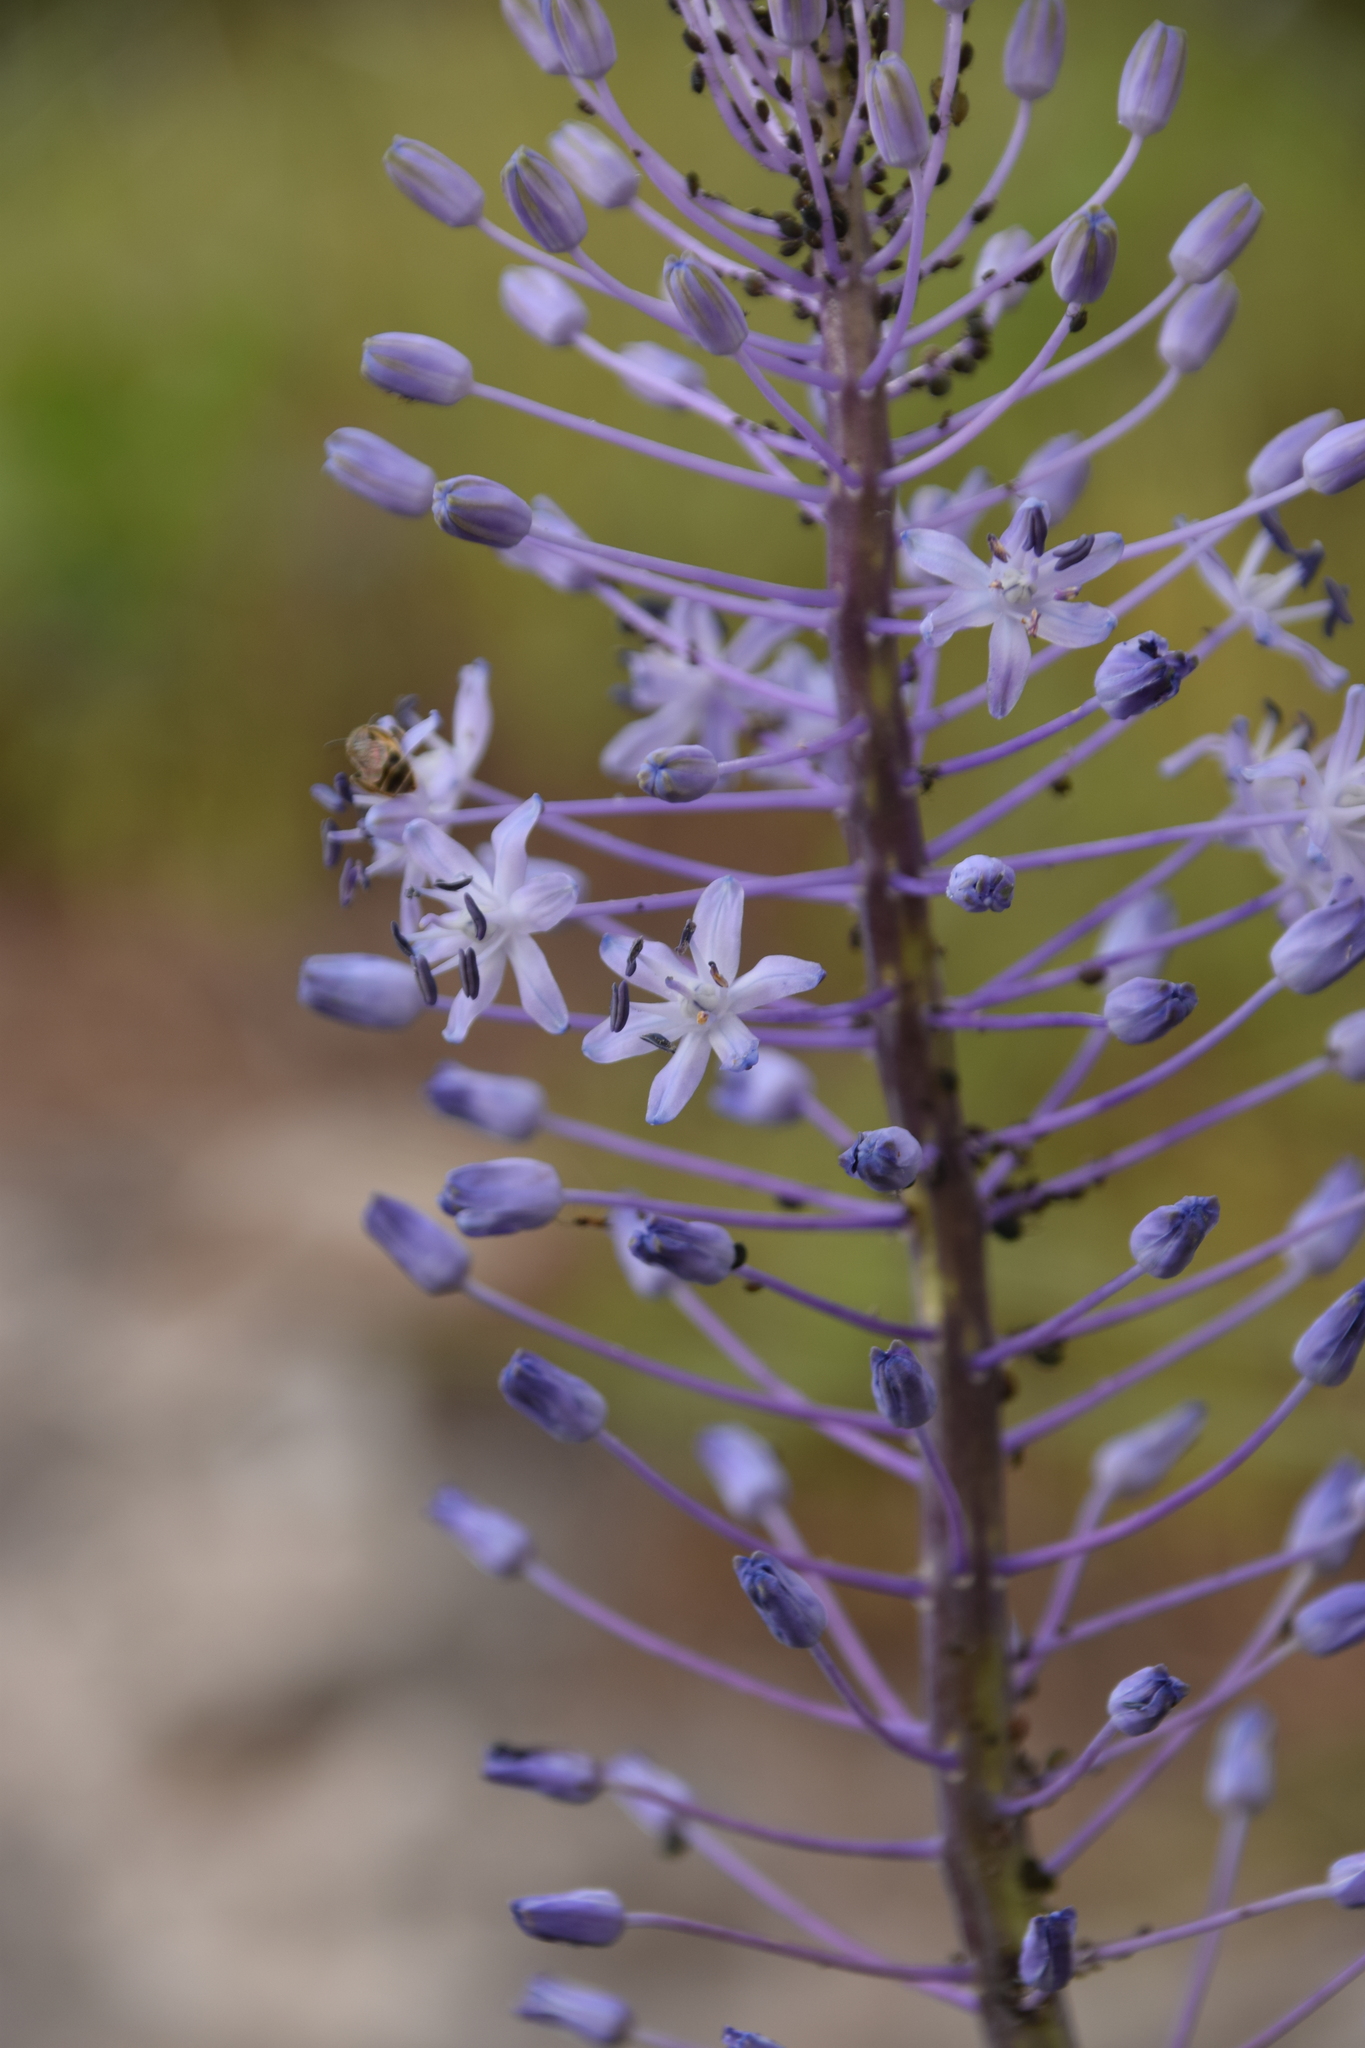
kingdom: Plantae
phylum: Tracheophyta
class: Liliopsida
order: Asparagales
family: Asparagaceae
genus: Scilla
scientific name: Scilla hyacinthoides
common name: Scilla
